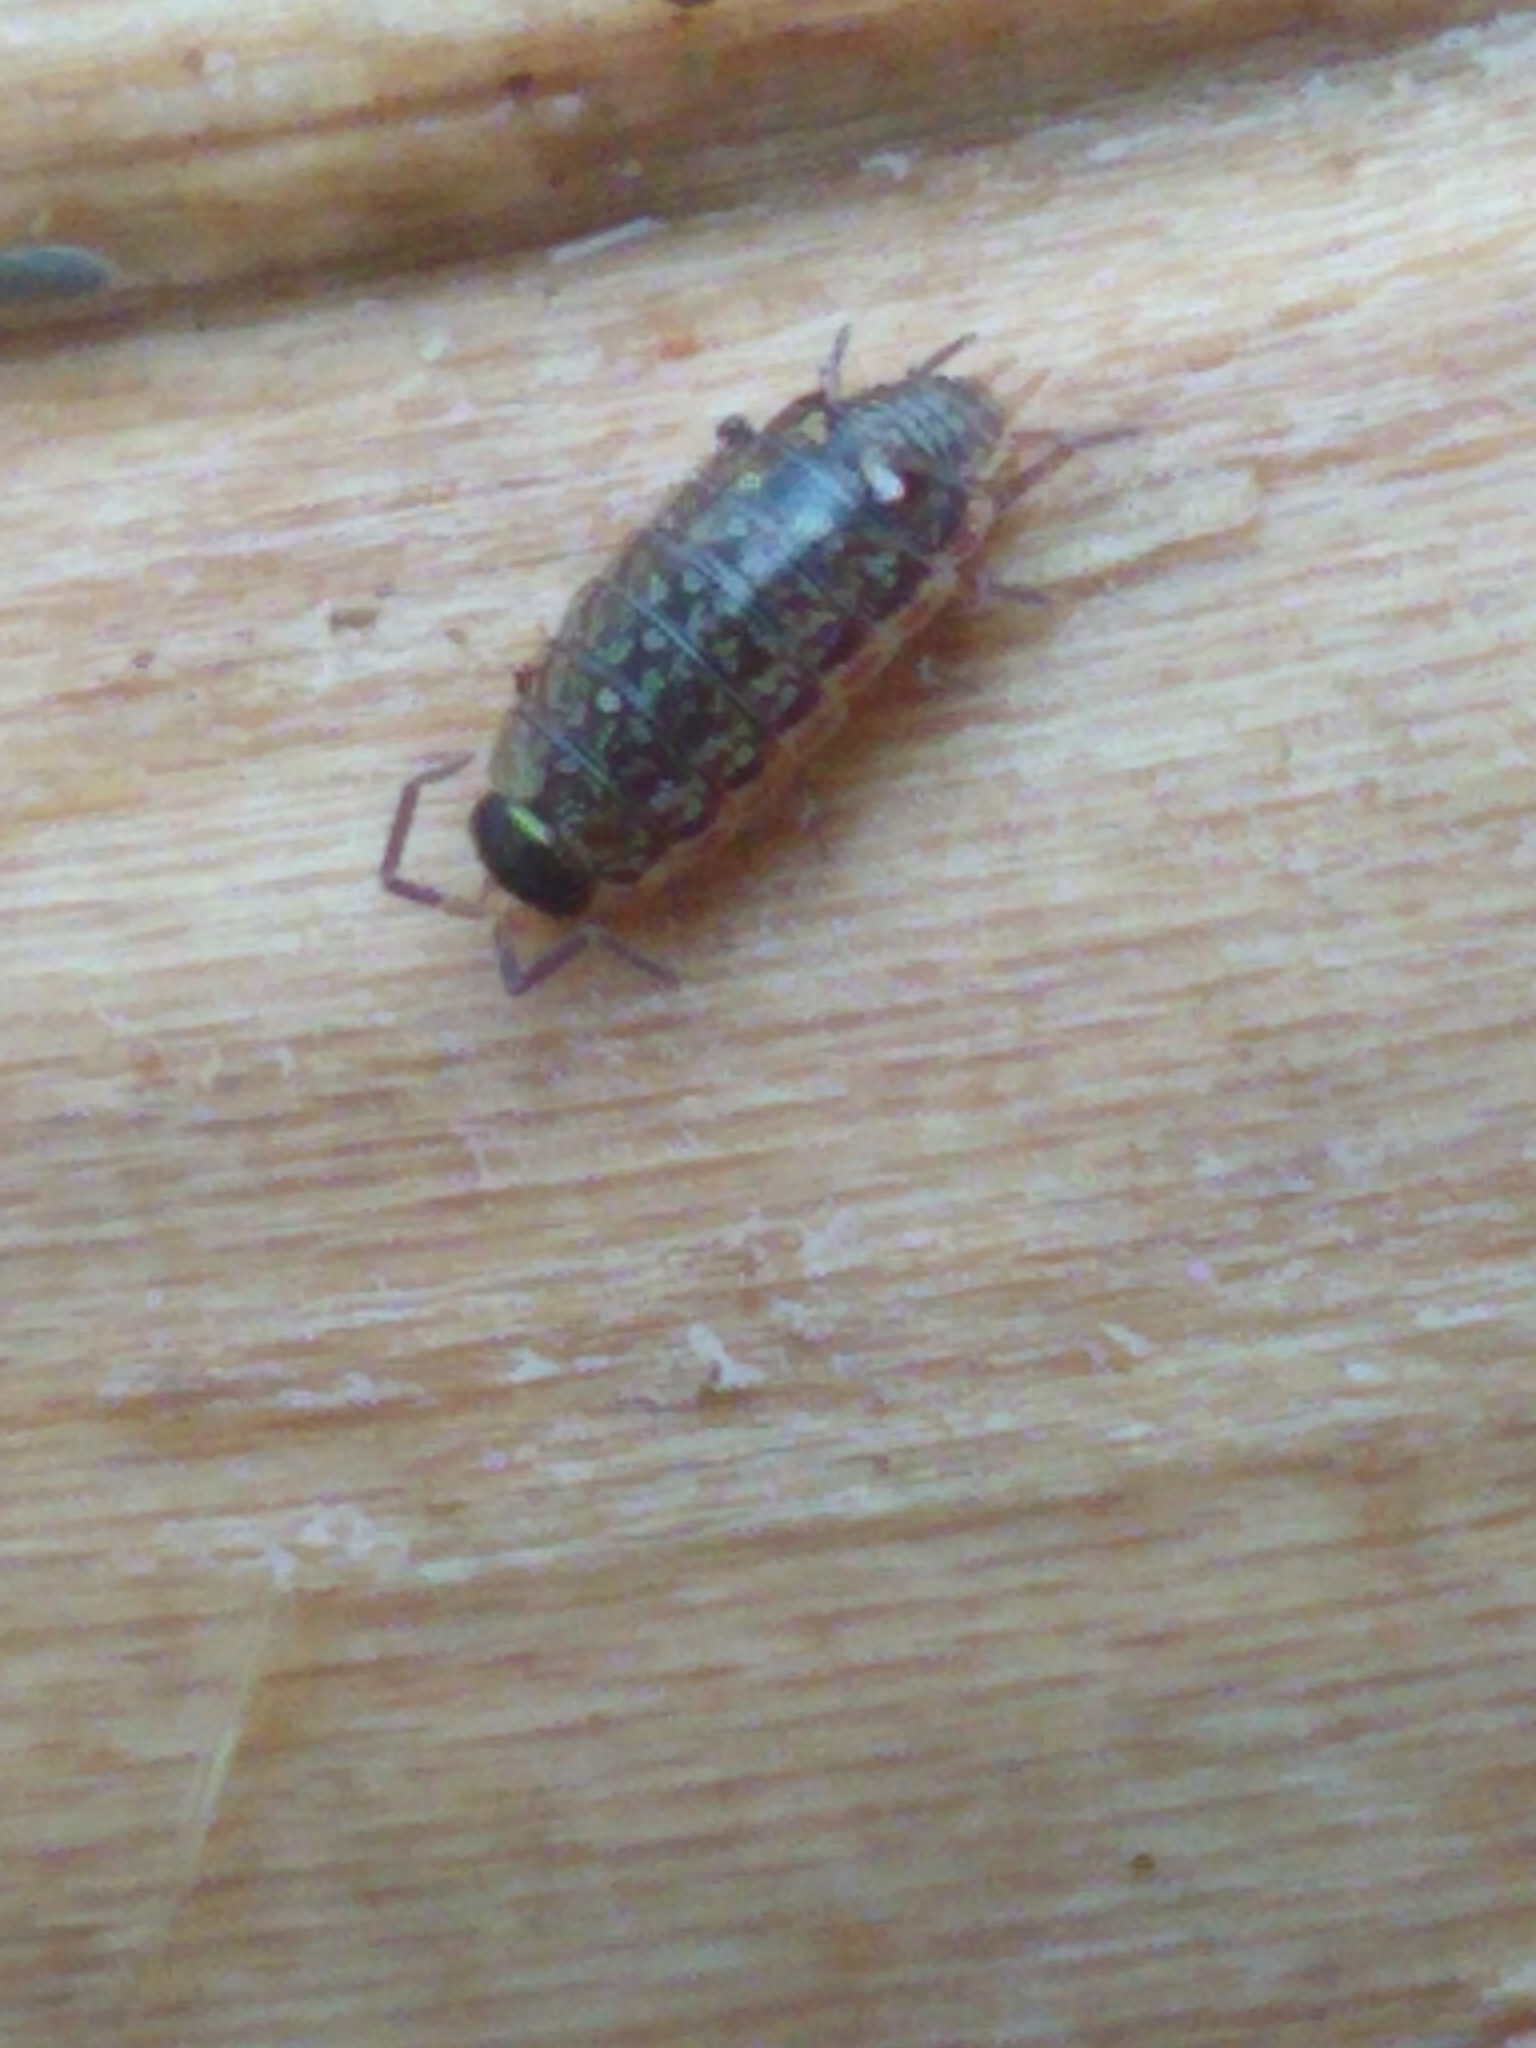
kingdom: Animalia
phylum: Arthropoda
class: Malacostraca
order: Isopoda
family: Philosciidae
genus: Philoscia
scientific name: Philoscia muscorum
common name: Common striped woodlouse
